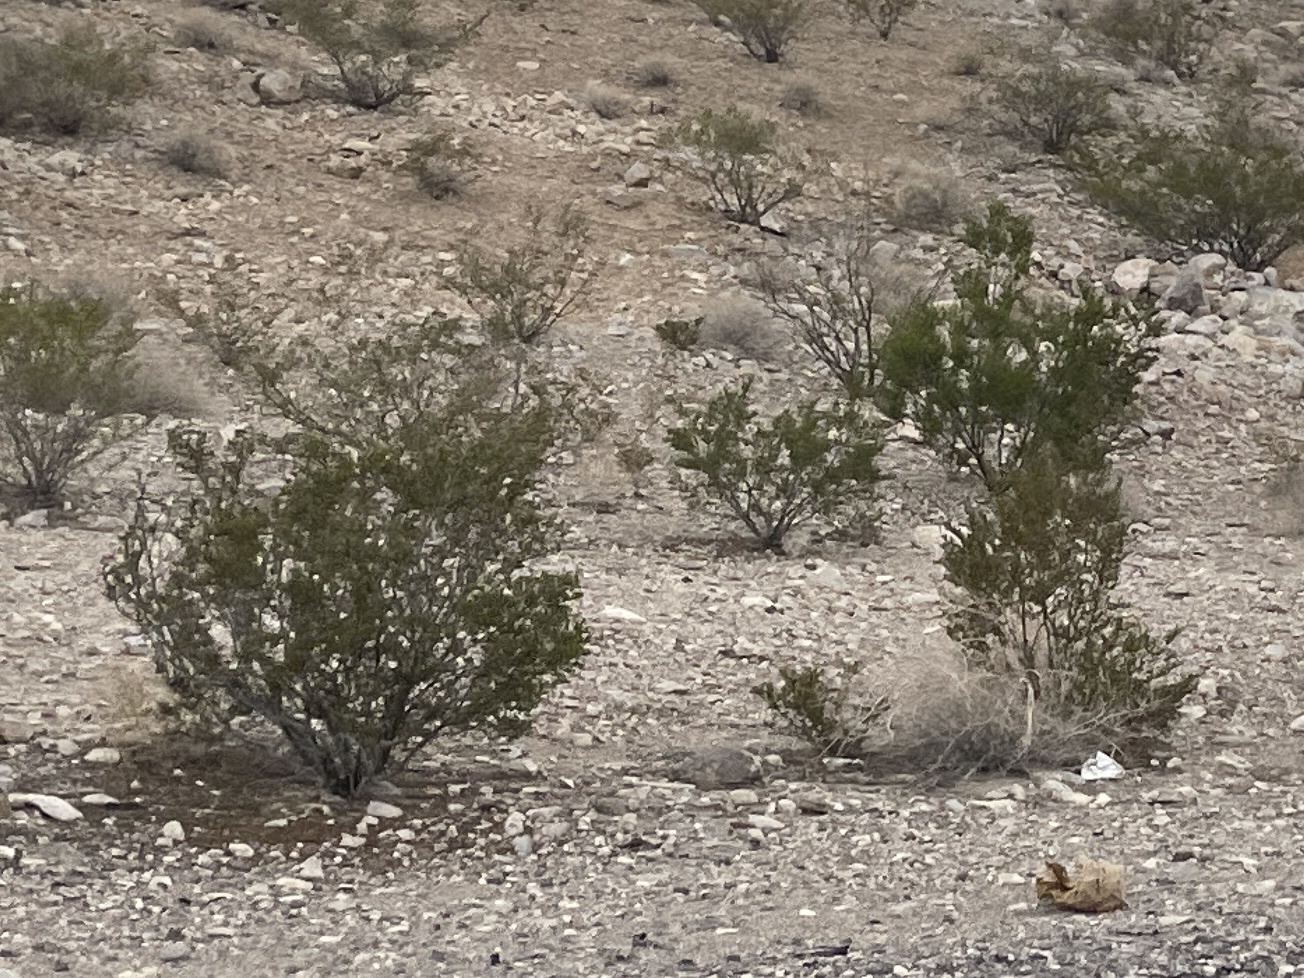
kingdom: Plantae
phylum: Tracheophyta
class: Magnoliopsida
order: Zygophyllales
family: Zygophyllaceae
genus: Larrea
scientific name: Larrea tridentata
